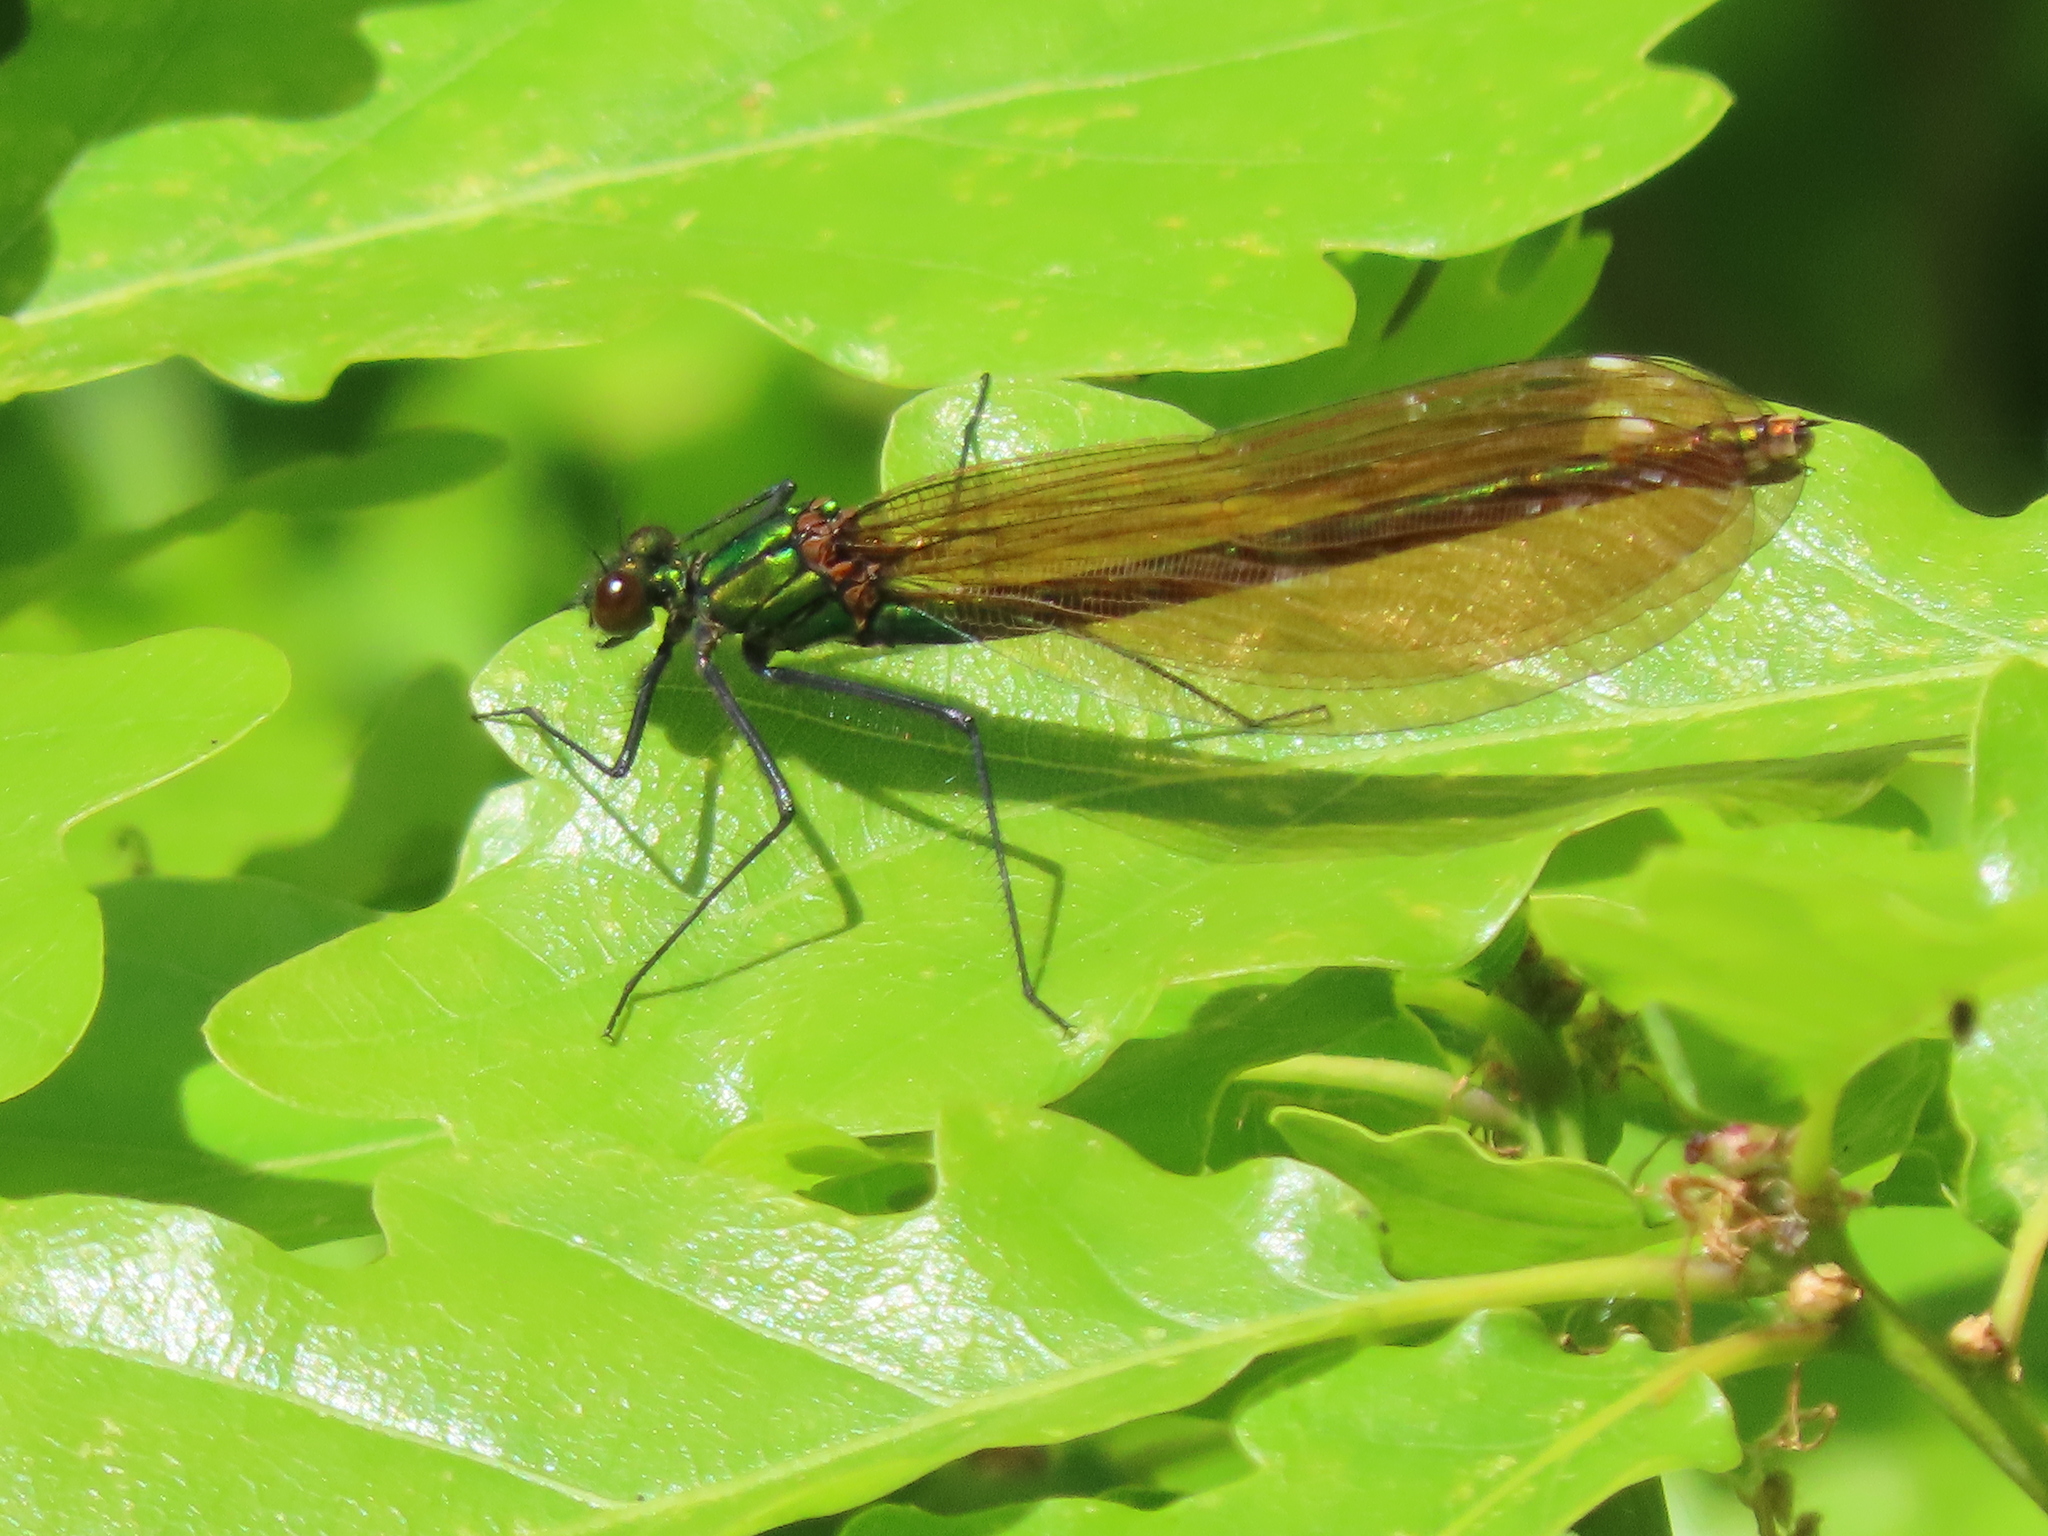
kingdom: Animalia
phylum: Arthropoda
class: Insecta
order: Odonata
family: Calopterygidae
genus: Calopteryx
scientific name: Calopteryx virgo
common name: Beautiful demoiselle
